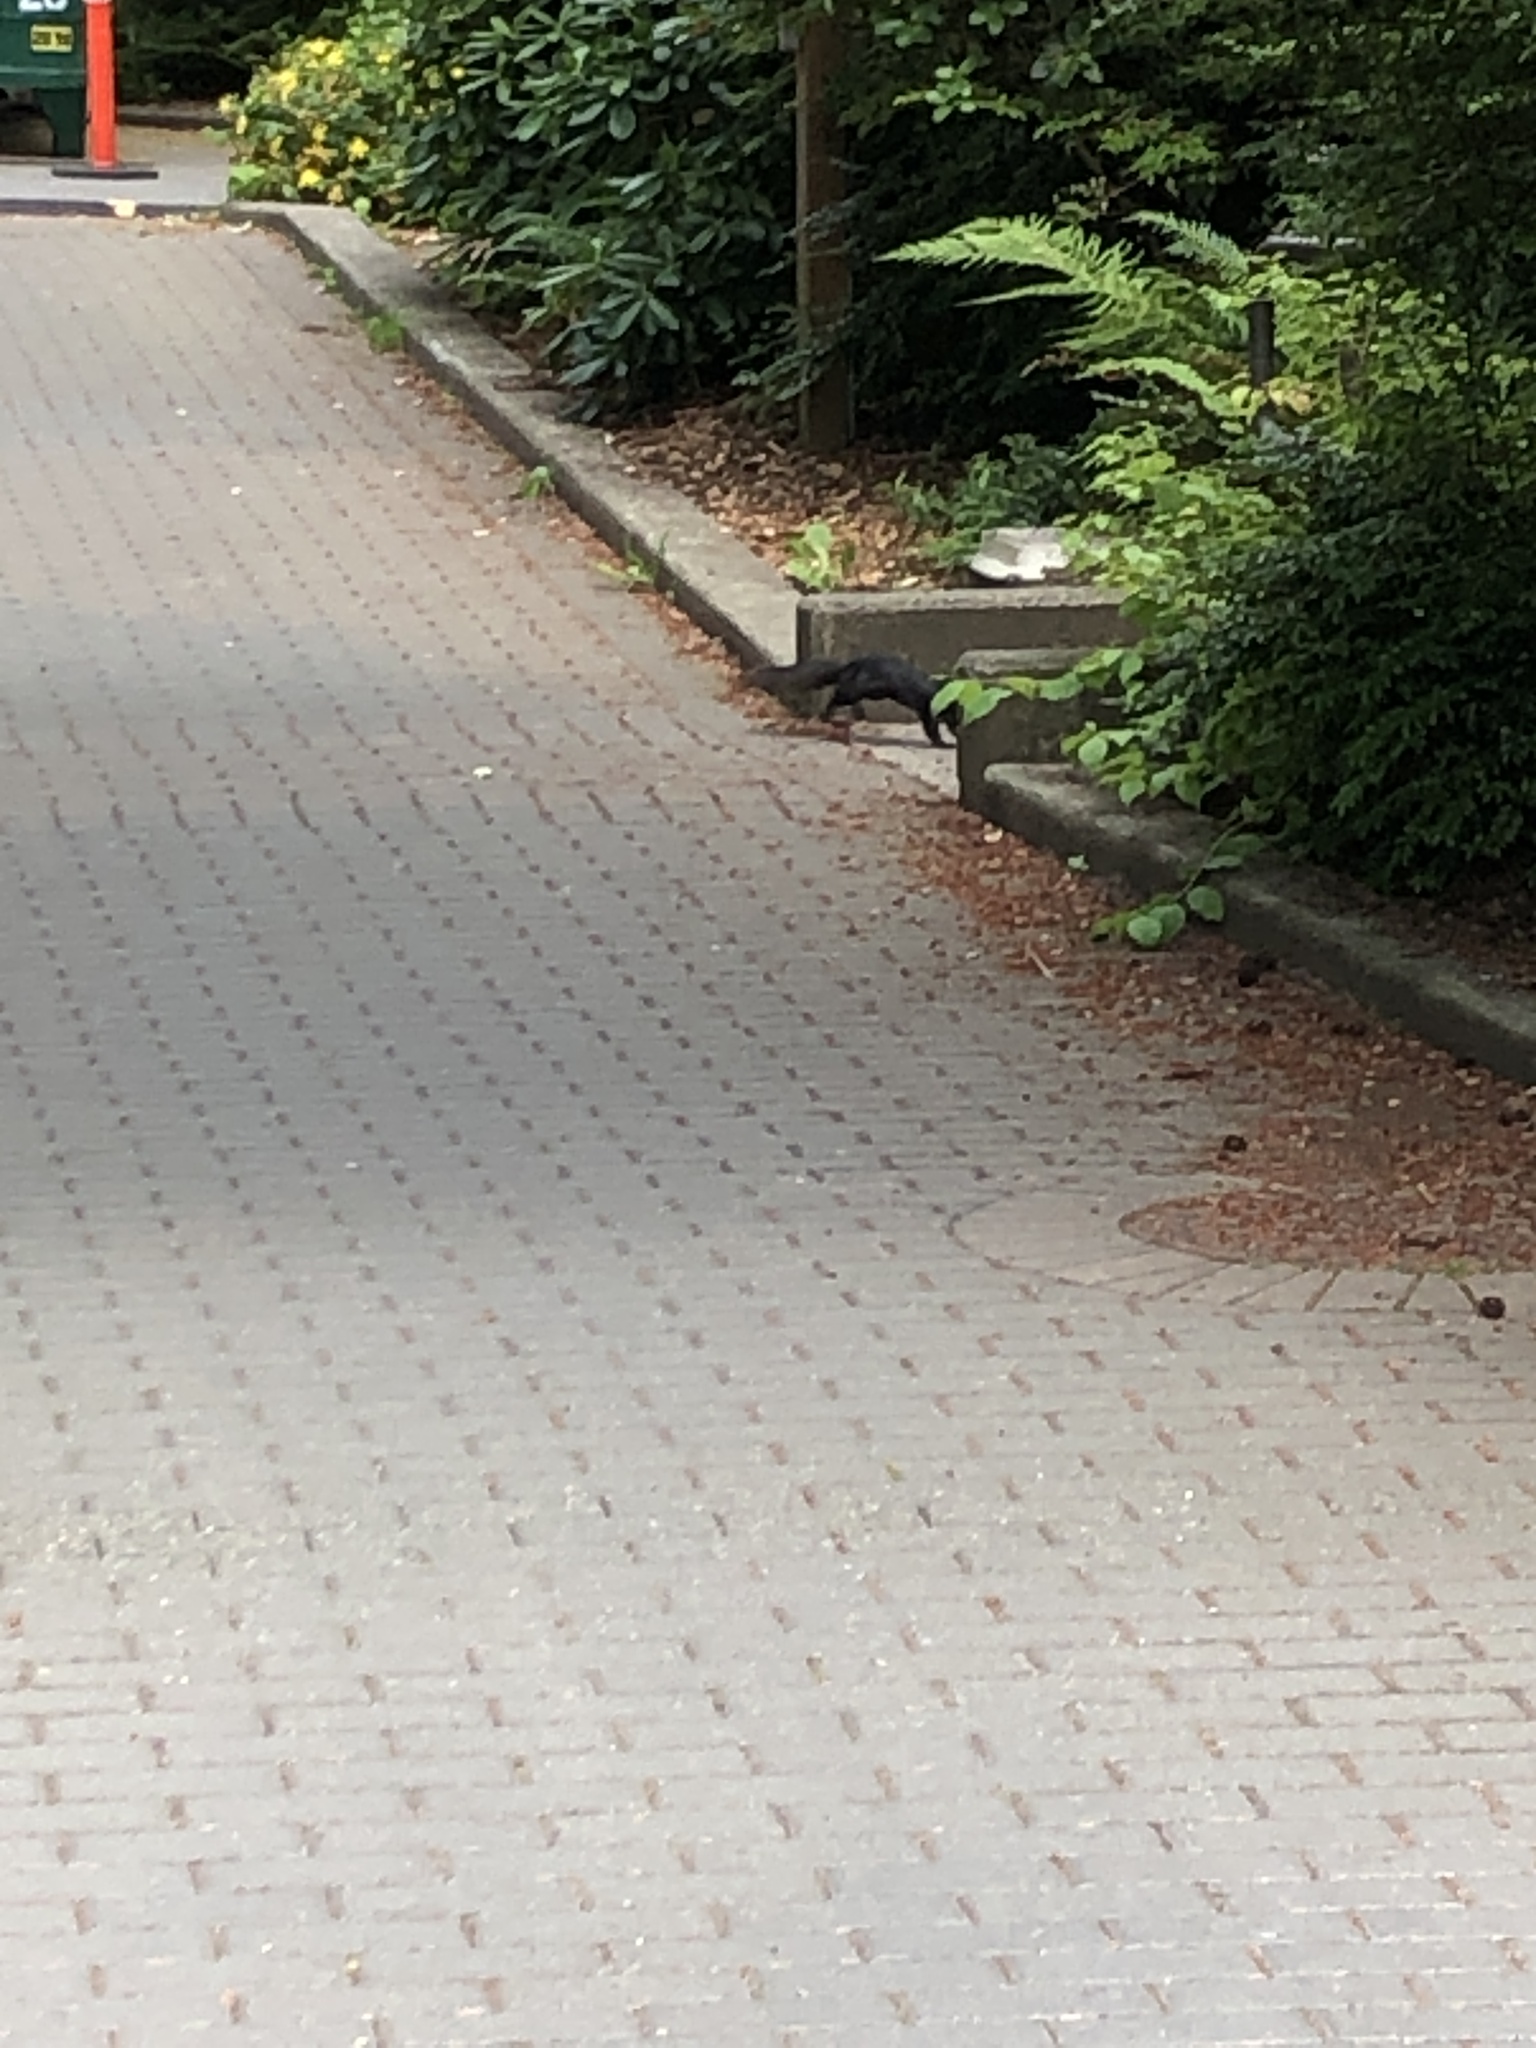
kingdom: Animalia
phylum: Chordata
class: Mammalia
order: Rodentia
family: Sciuridae
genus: Sciurus
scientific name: Sciurus carolinensis
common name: Eastern gray squirrel
